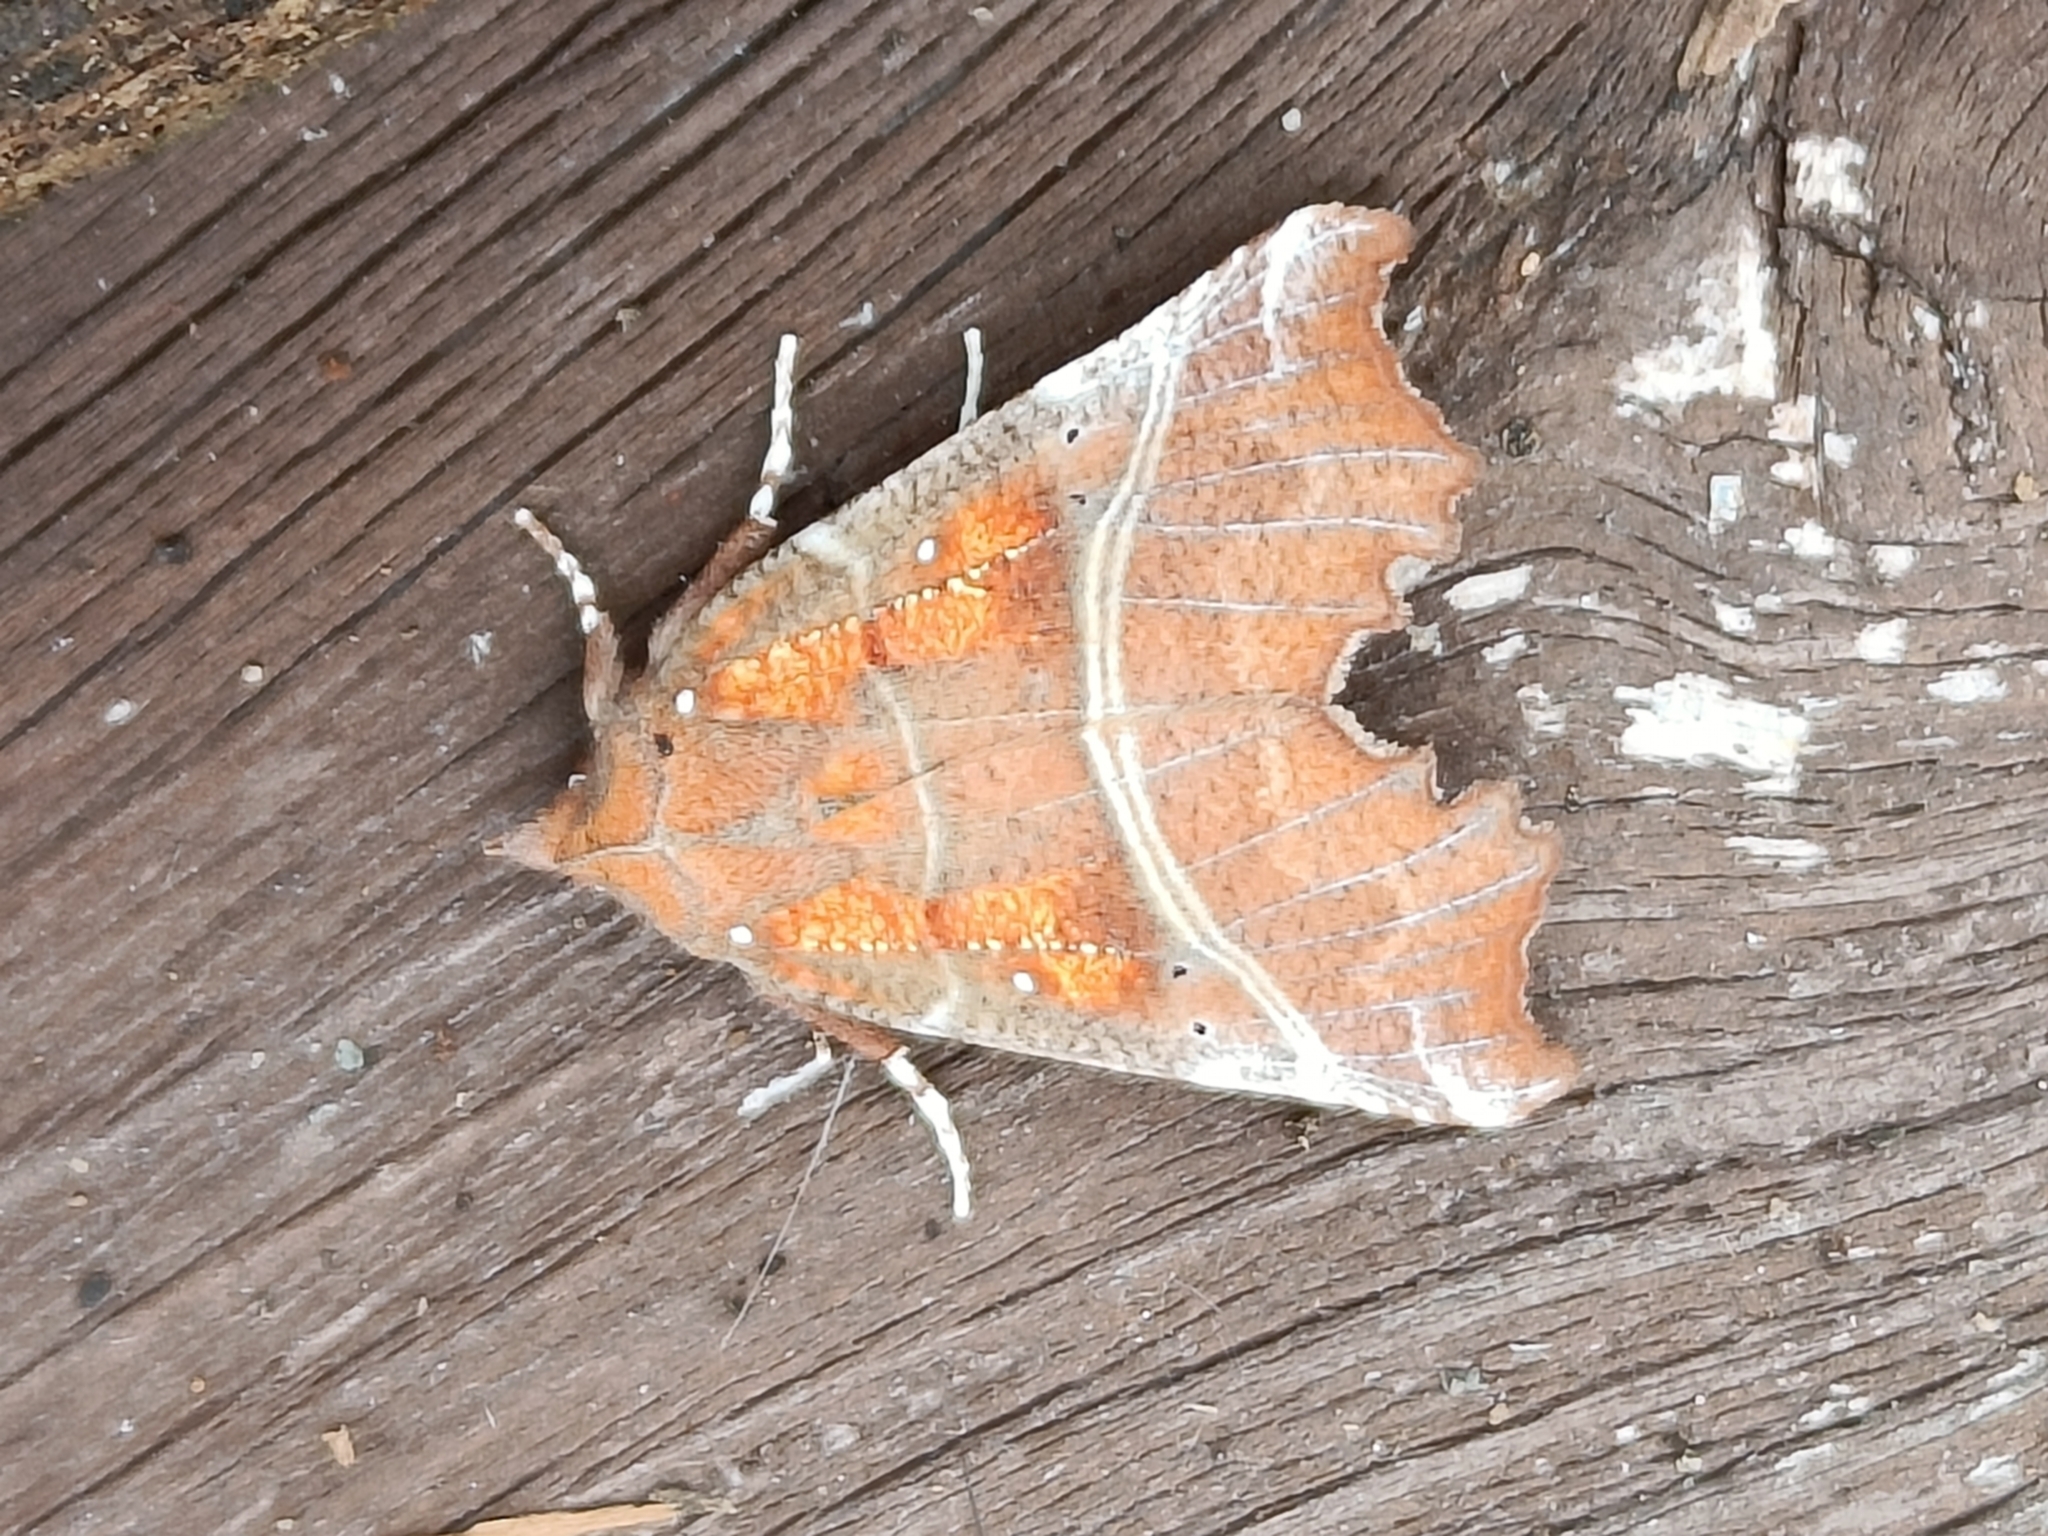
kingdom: Animalia
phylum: Arthropoda
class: Insecta
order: Lepidoptera
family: Erebidae
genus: Scoliopteryx
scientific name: Scoliopteryx libatrix
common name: Herald
